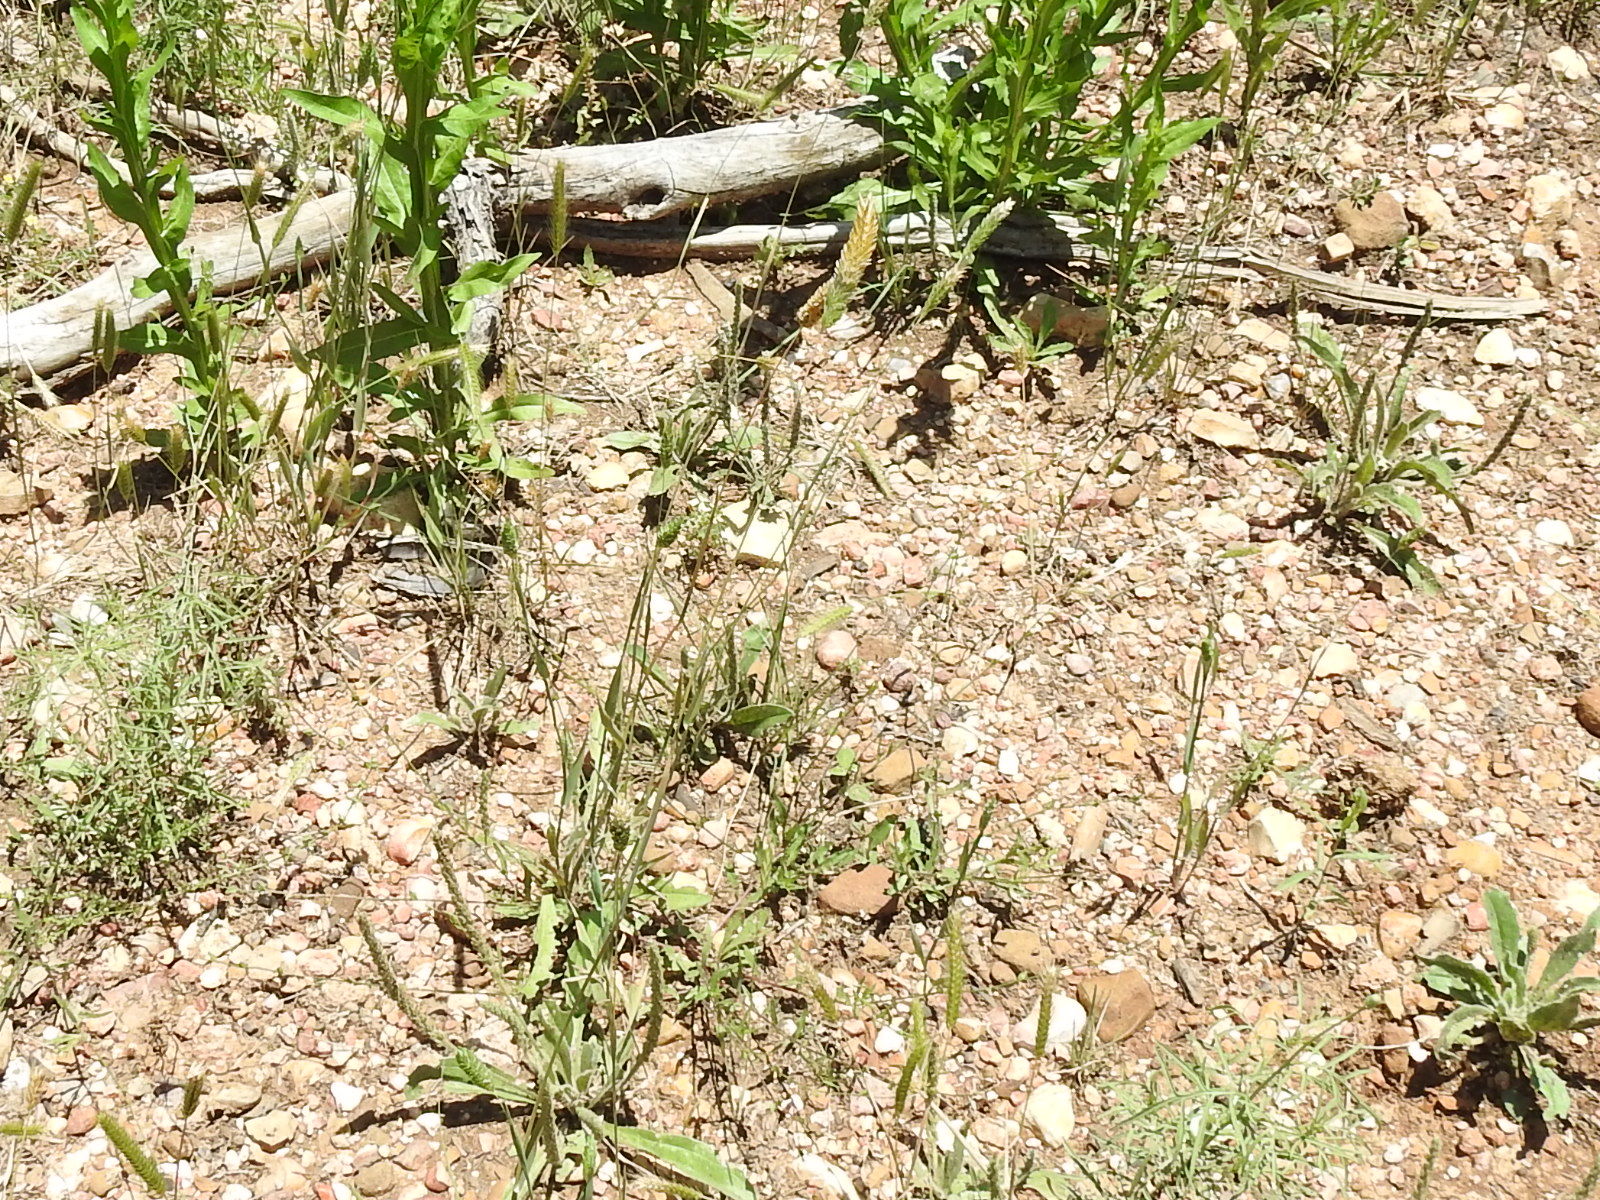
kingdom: Plantae
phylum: Tracheophyta
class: Liliopsida
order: Poales
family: Poaceae
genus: Phalaris
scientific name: Phalaris caroliniana
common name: May grass
